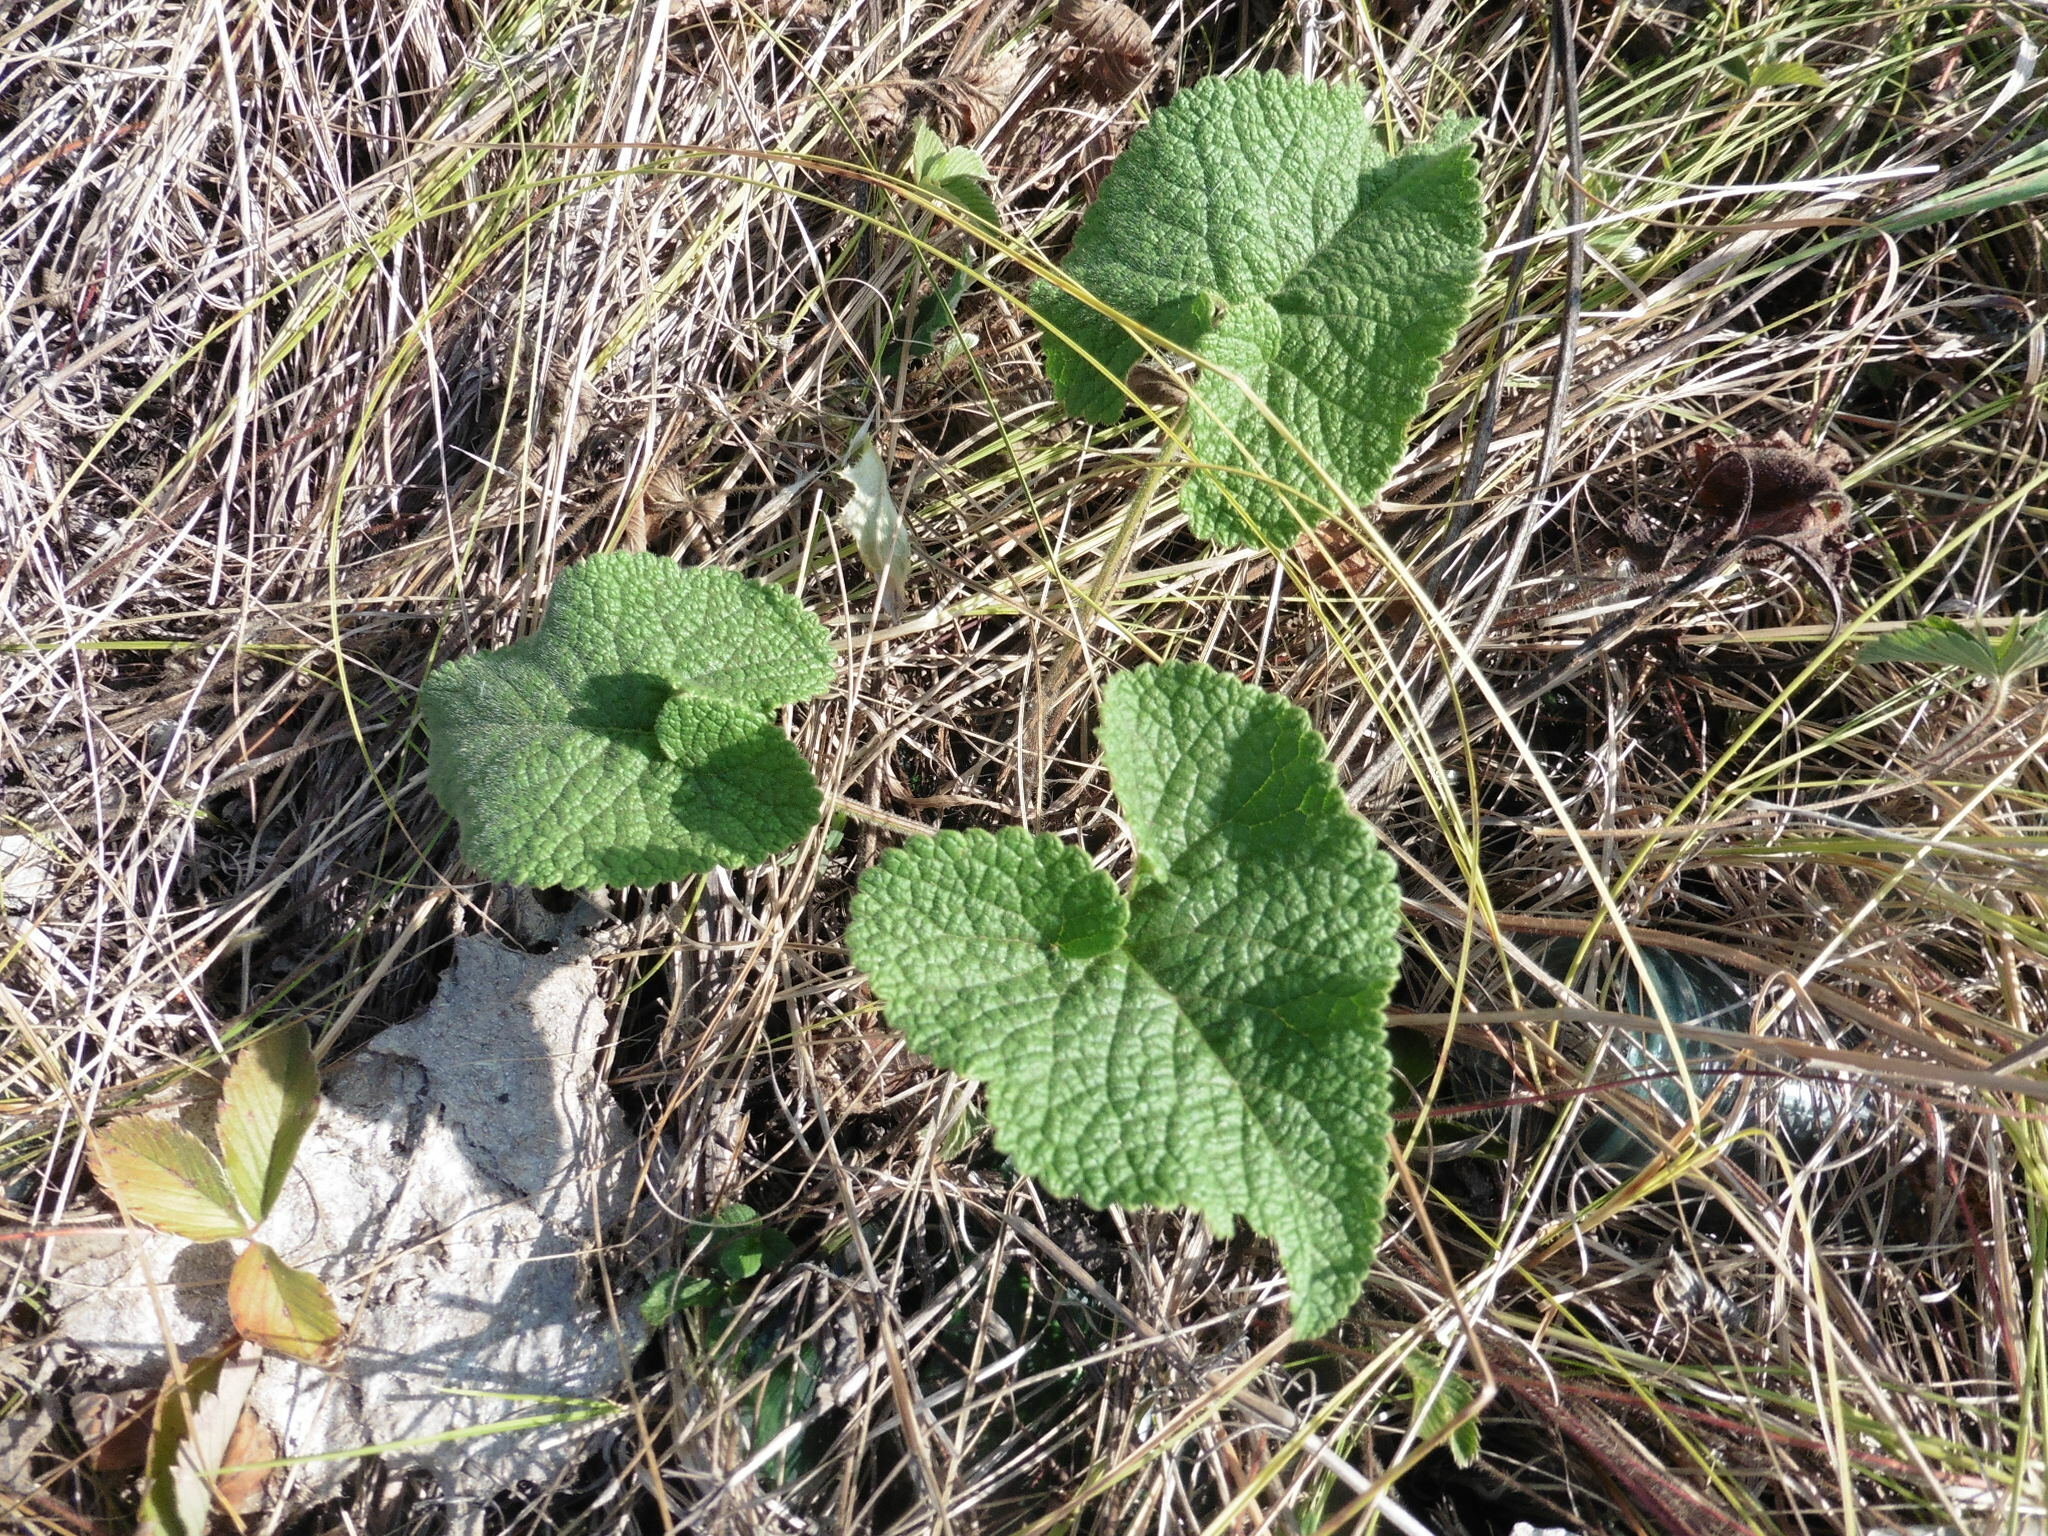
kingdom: Plantae
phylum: Tracheophyta
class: Magnoliopsida
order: Lamiales
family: Lamiaceae
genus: Phlomoides
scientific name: Phlomoides tuberosa
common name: Tuberous jerusalem sage
